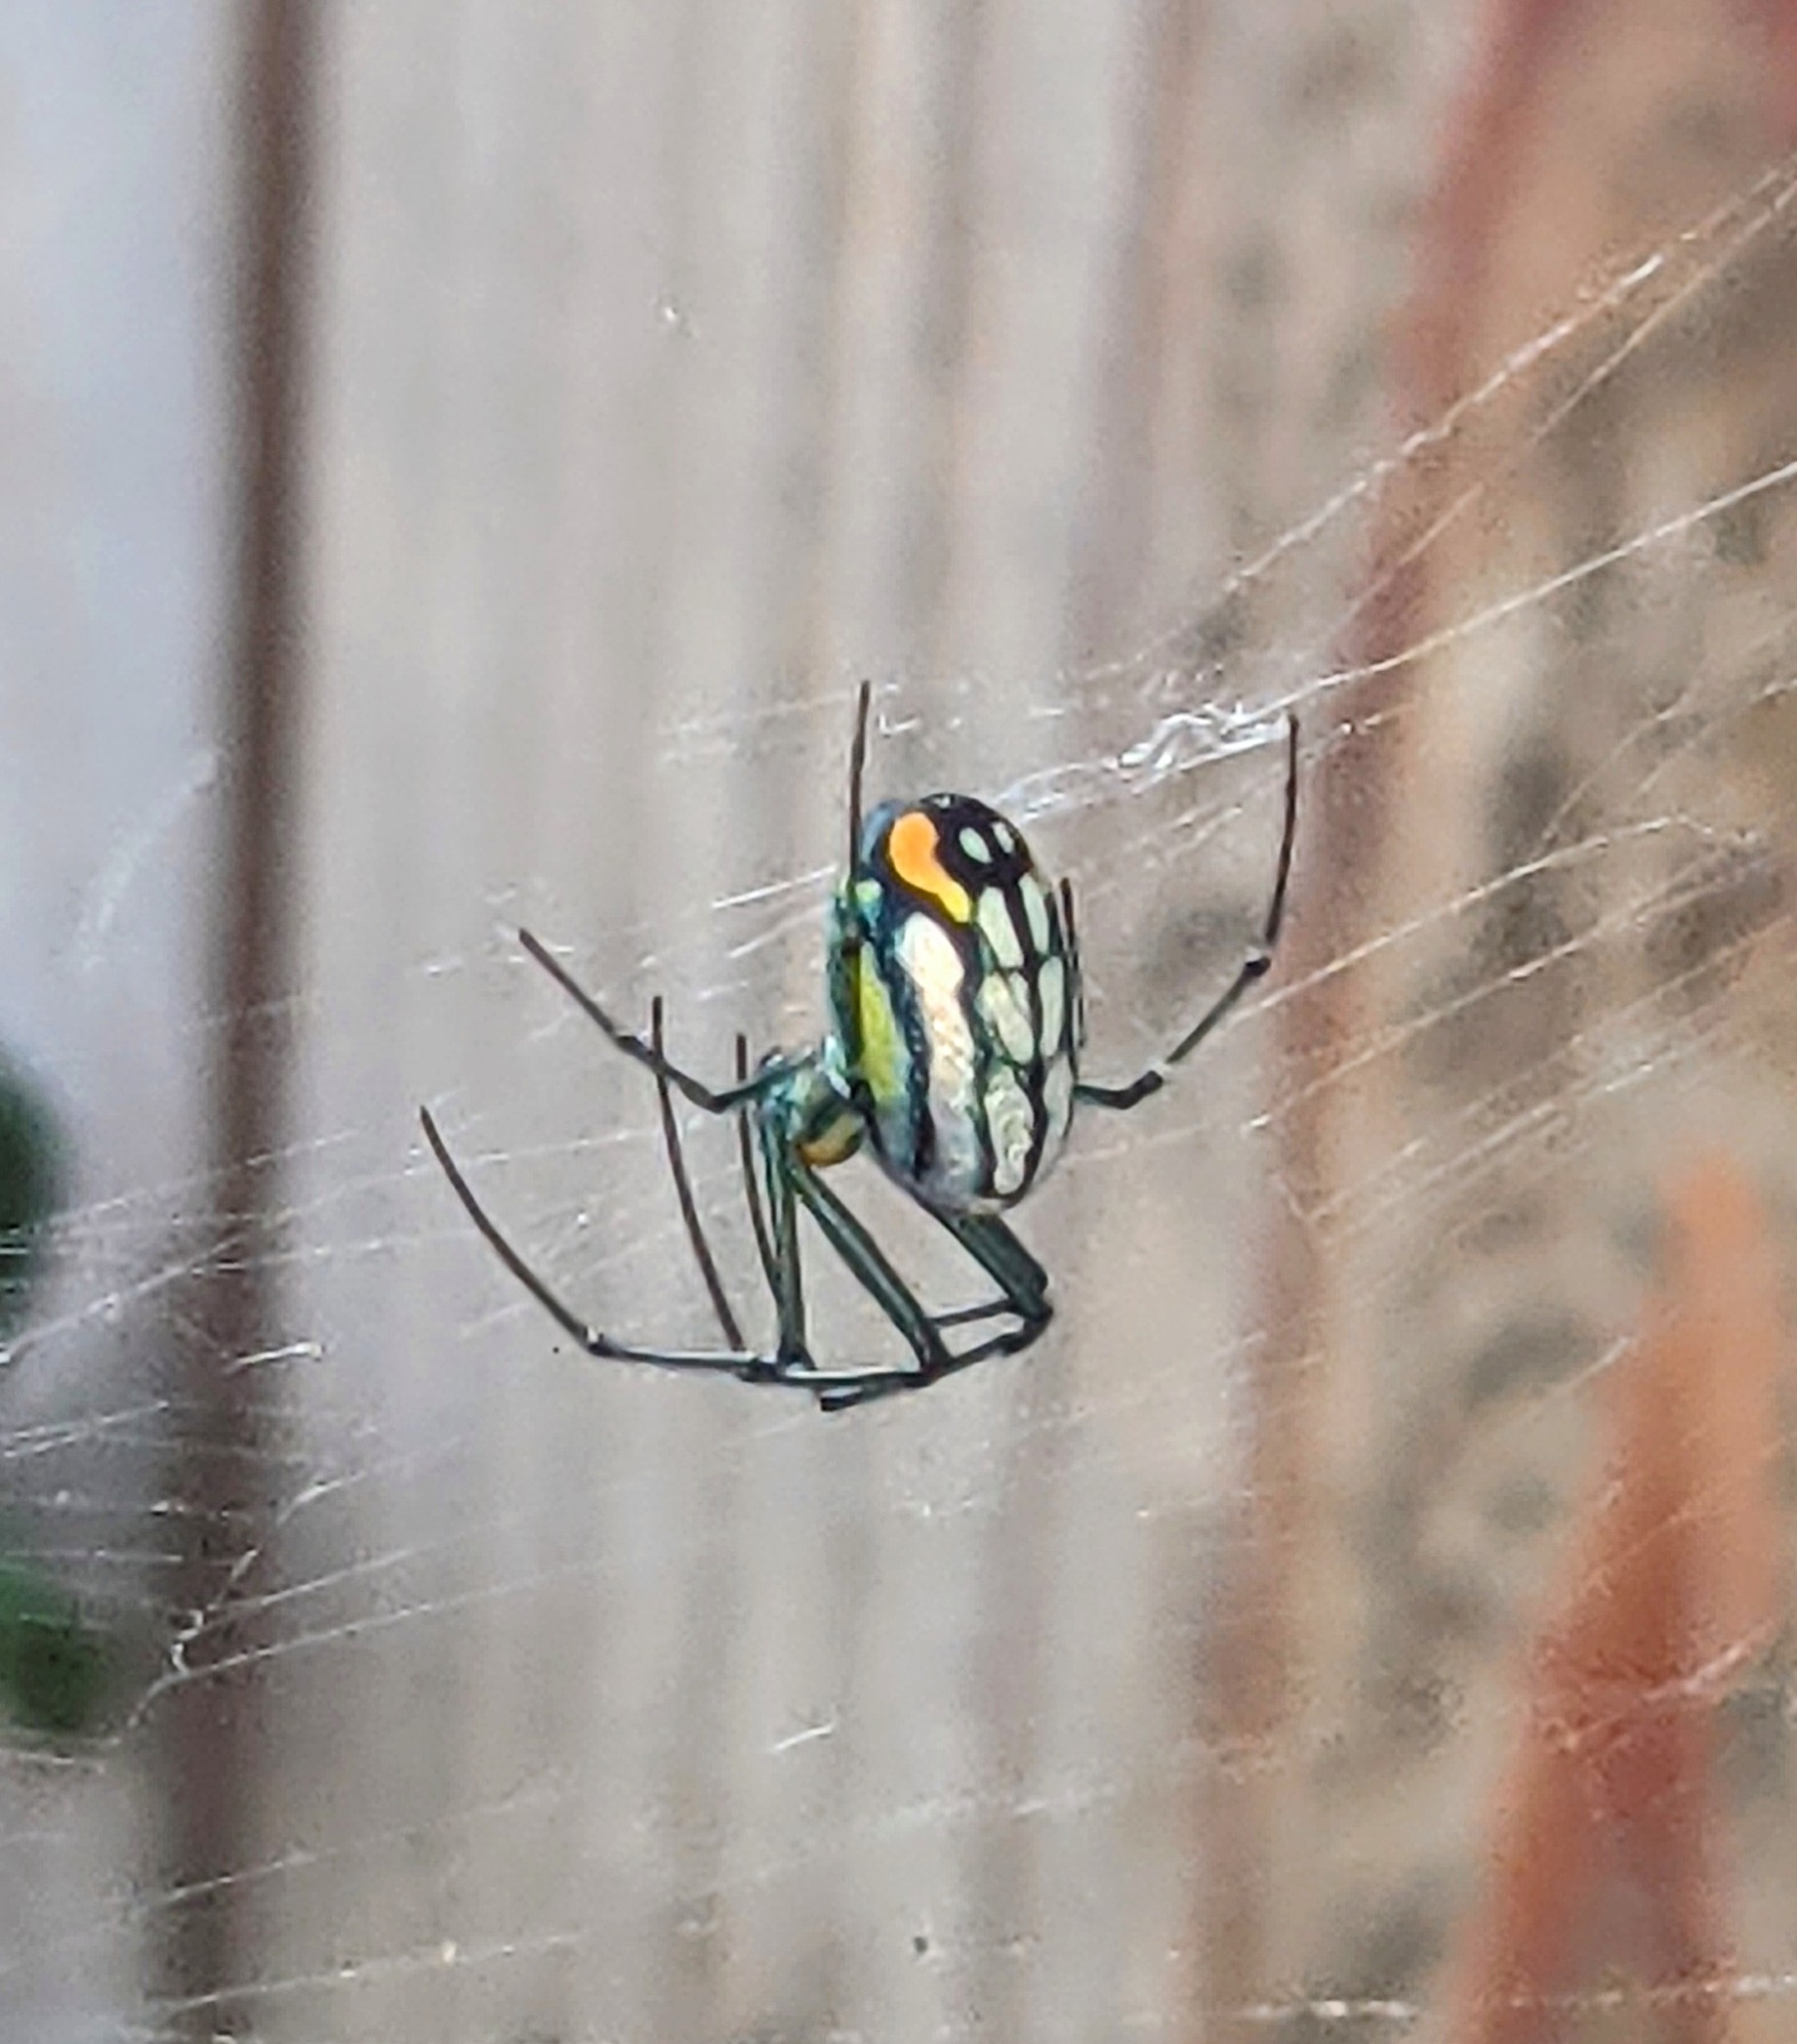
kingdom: Animalia
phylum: Arthropoda
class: Arachnida
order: Araneae
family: Tetragnathidae
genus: Leucauge
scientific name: Leucauge argyrobapta
